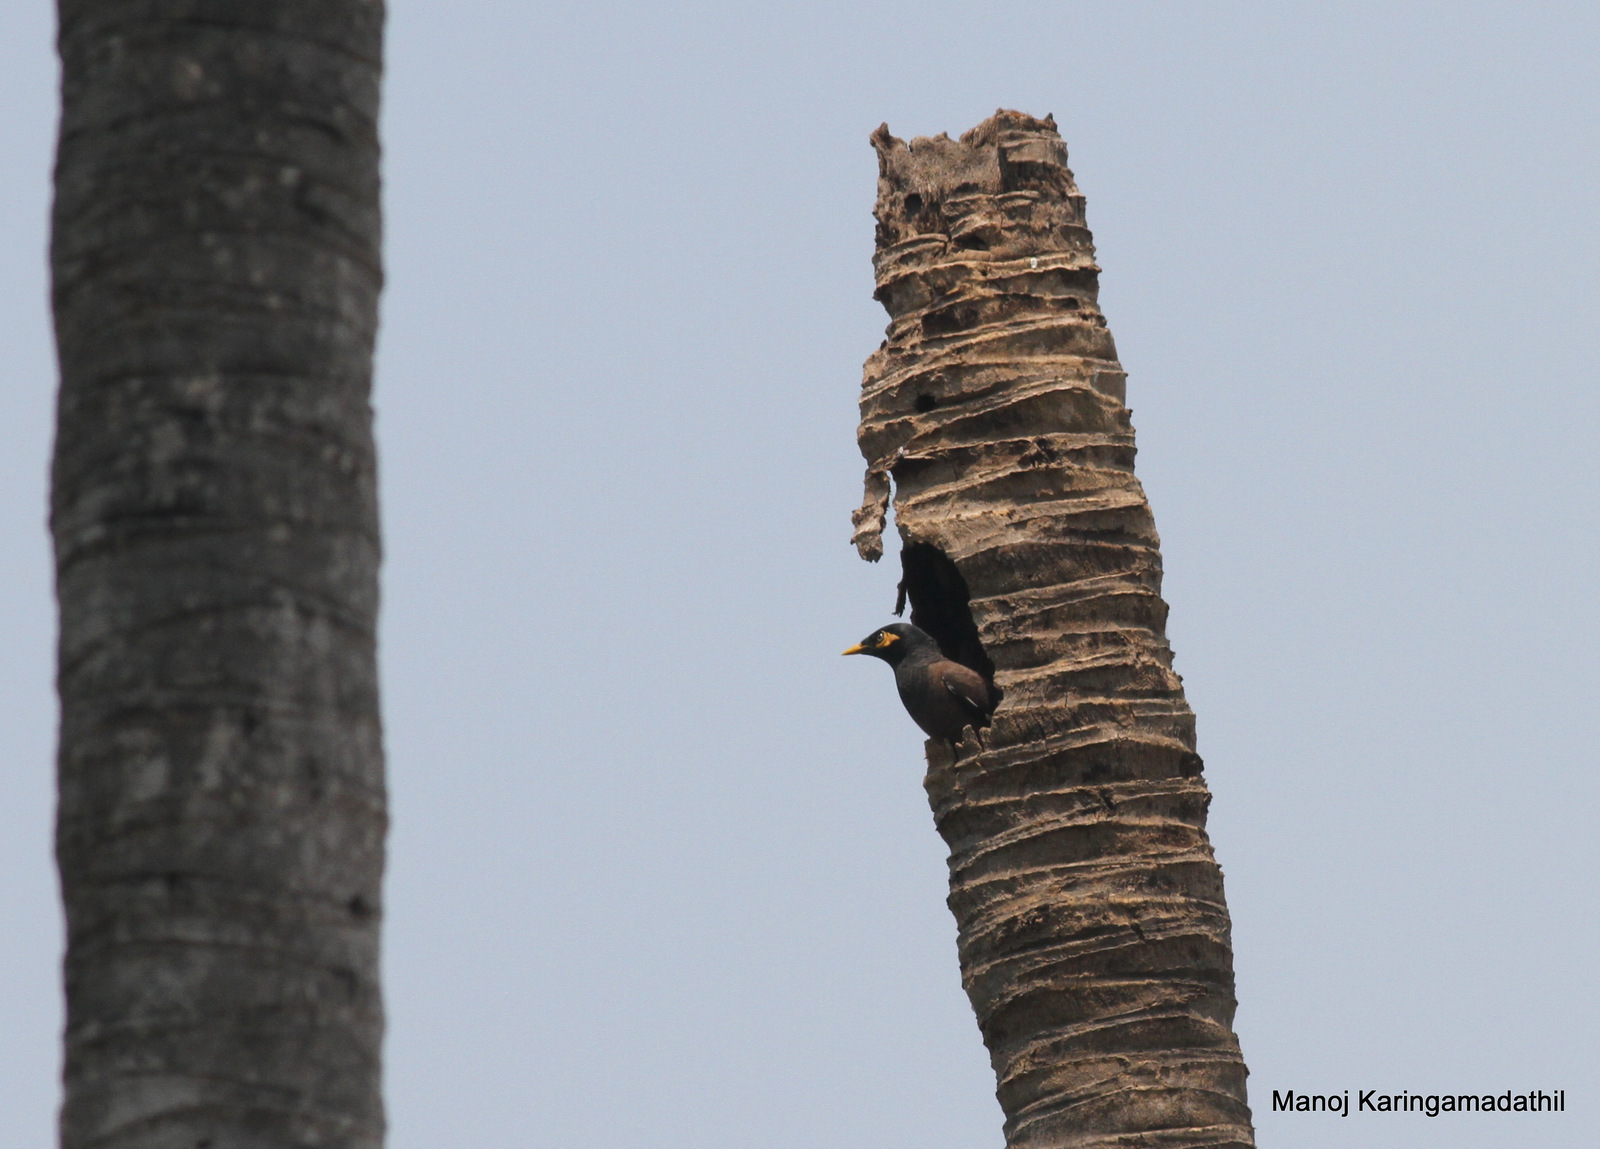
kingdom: Animalia
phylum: Chordata
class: Aves
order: Passeriformes
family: Sturnidae
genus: Acridotheres
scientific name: Acridotheres tristis
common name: Common myna
